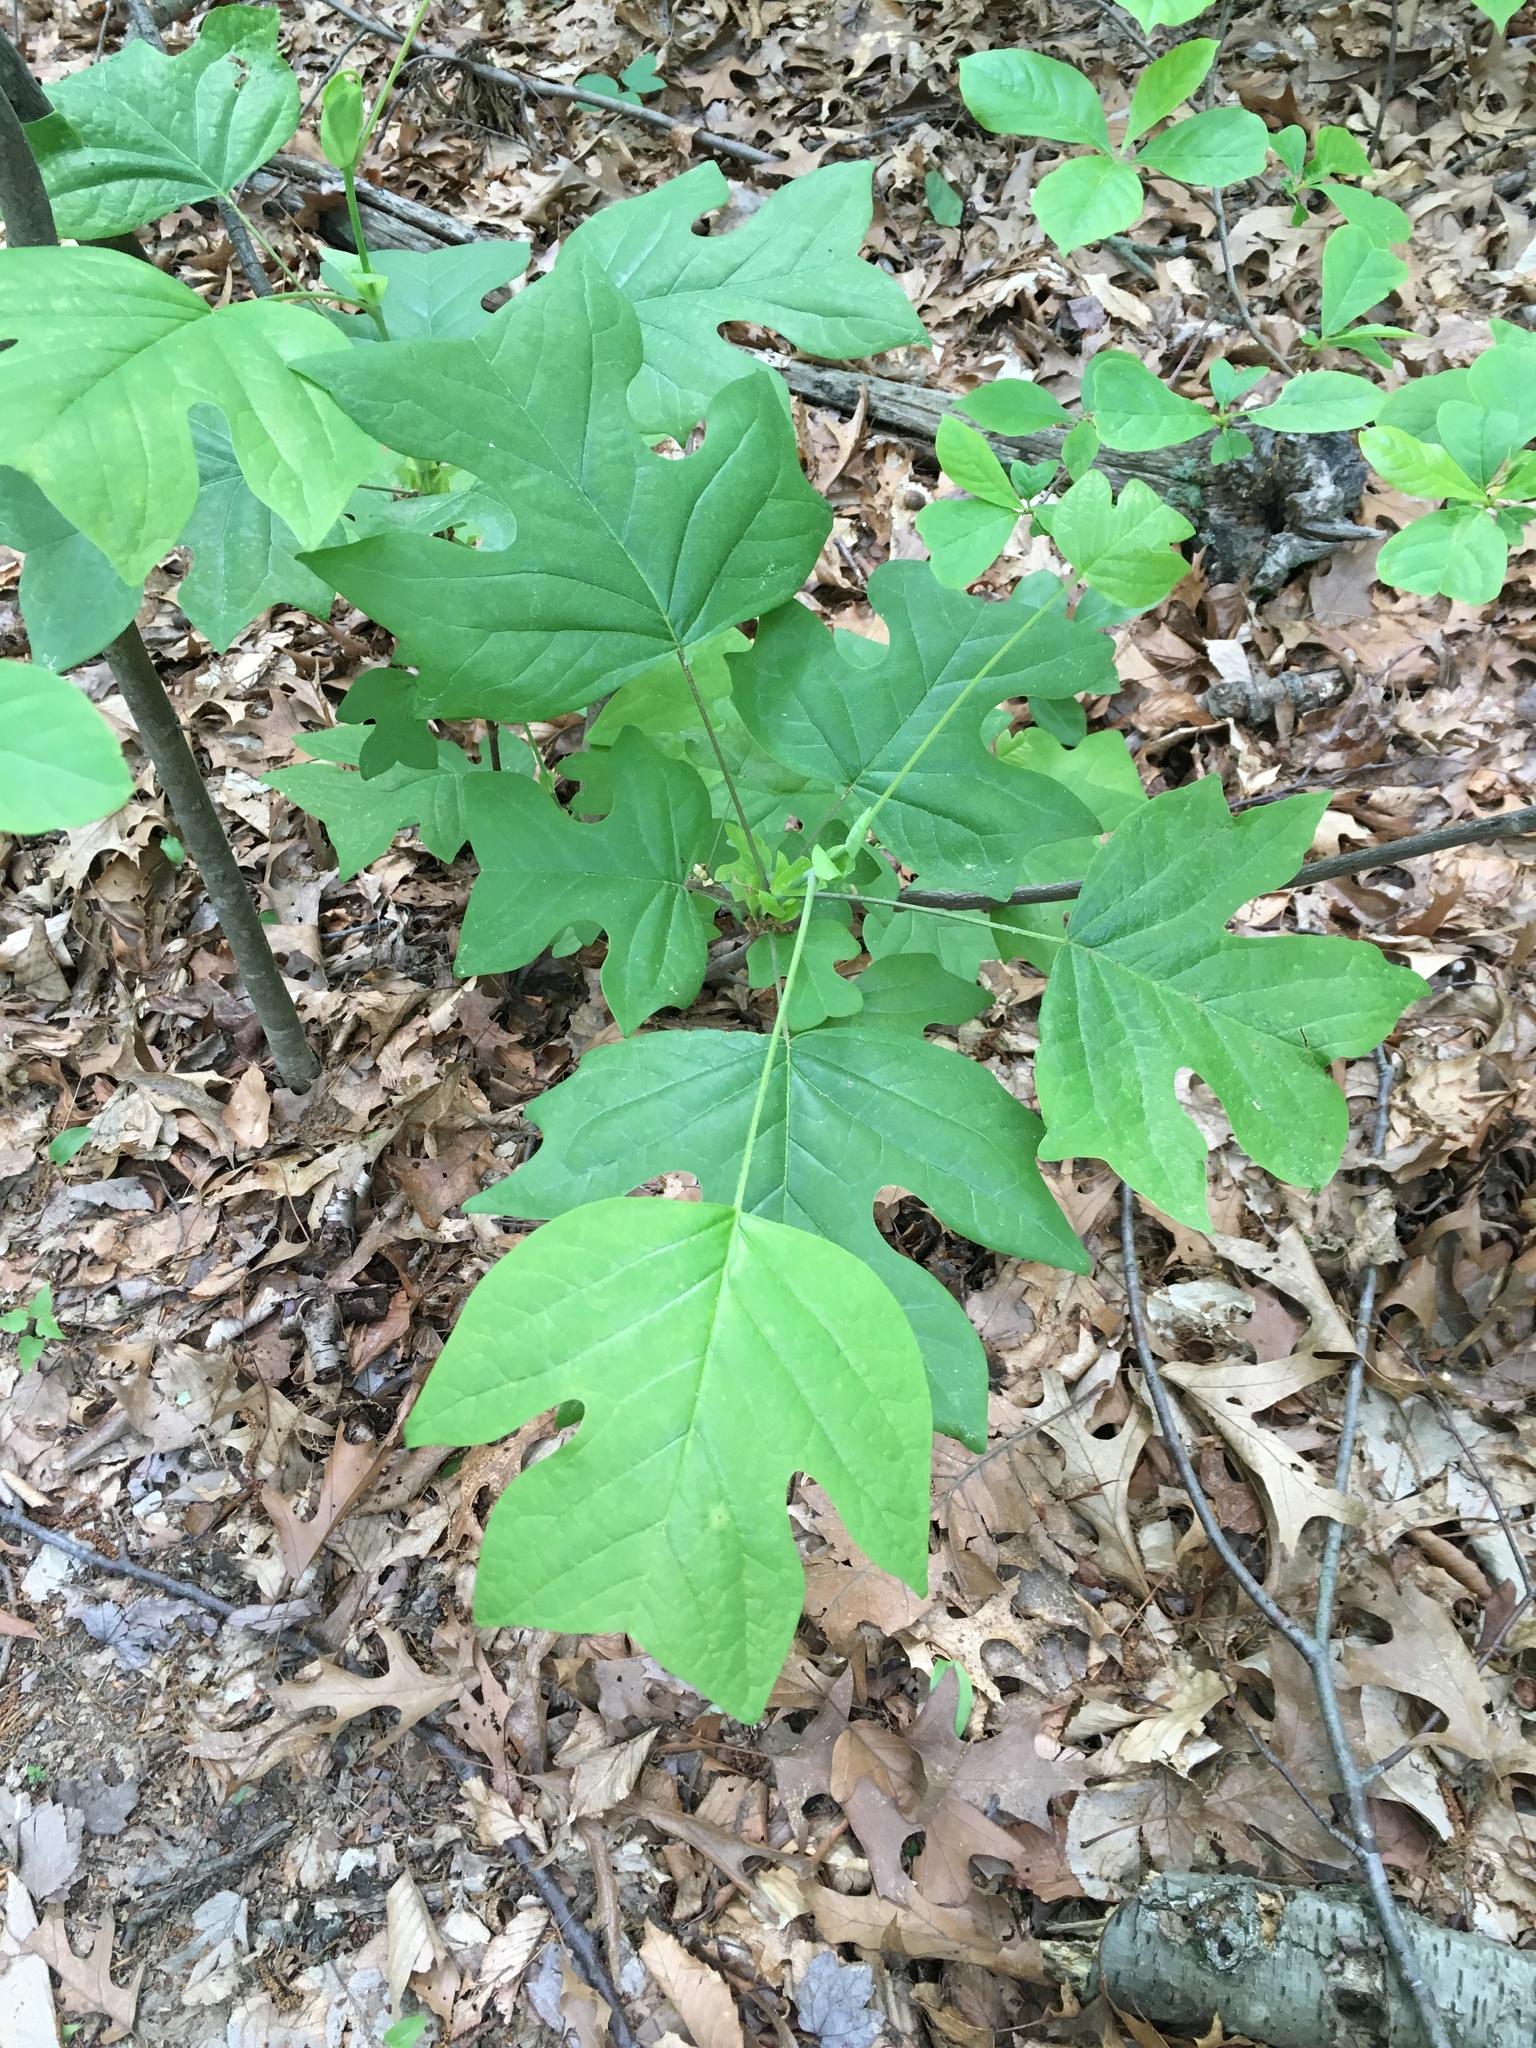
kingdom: Plantae
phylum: Tracheophyta
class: Magnoliopsida
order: Magnoliales
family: Magnoliaceae
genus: Liriodendron
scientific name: Liriodendron tulipifera
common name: Tulip tree
